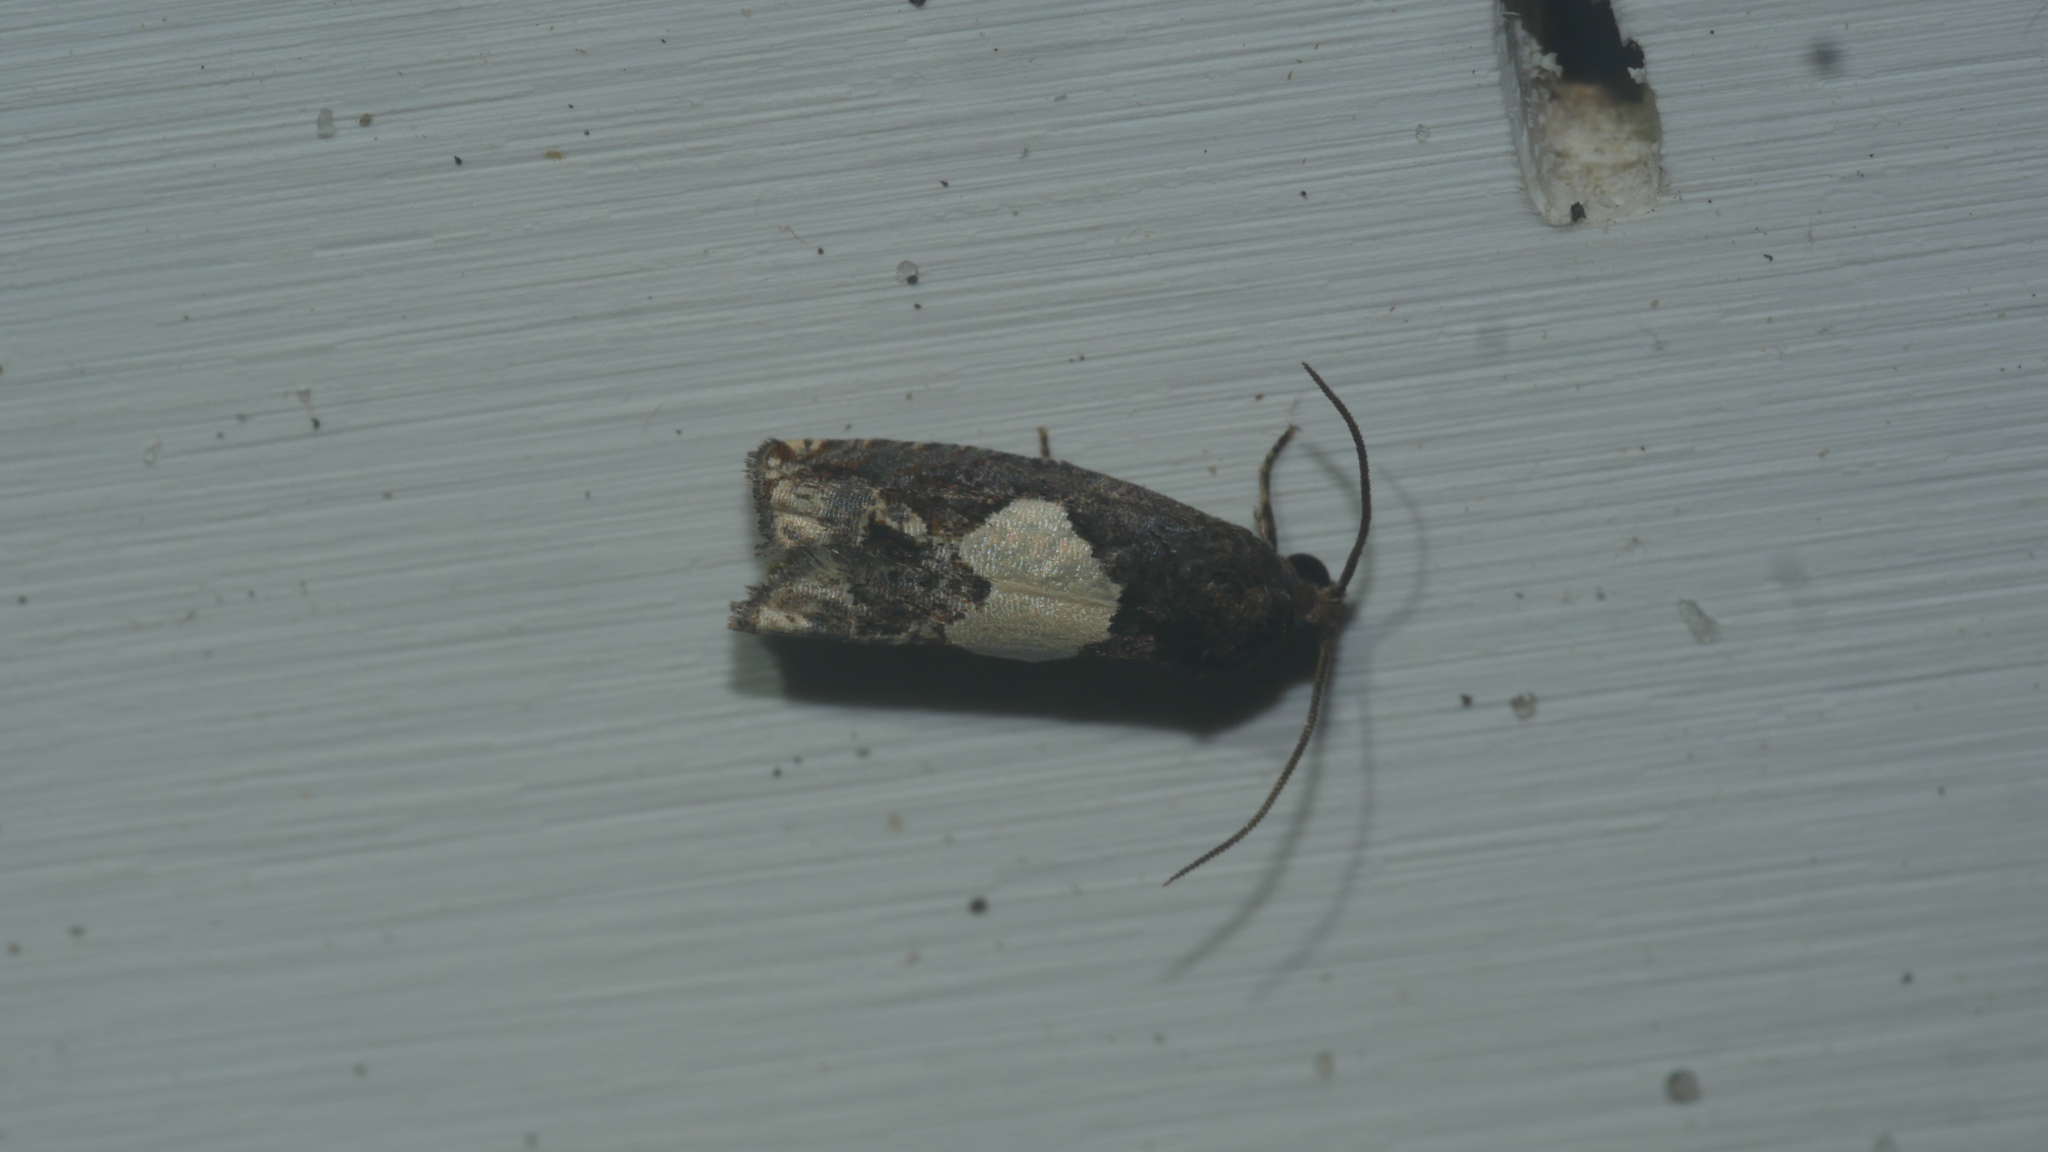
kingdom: Animalia
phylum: Arthropoda
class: Insecta
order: Lepidoptera
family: Tortricidae
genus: Epiblema
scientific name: Epiblema otiosana
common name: Bidens borer moth
